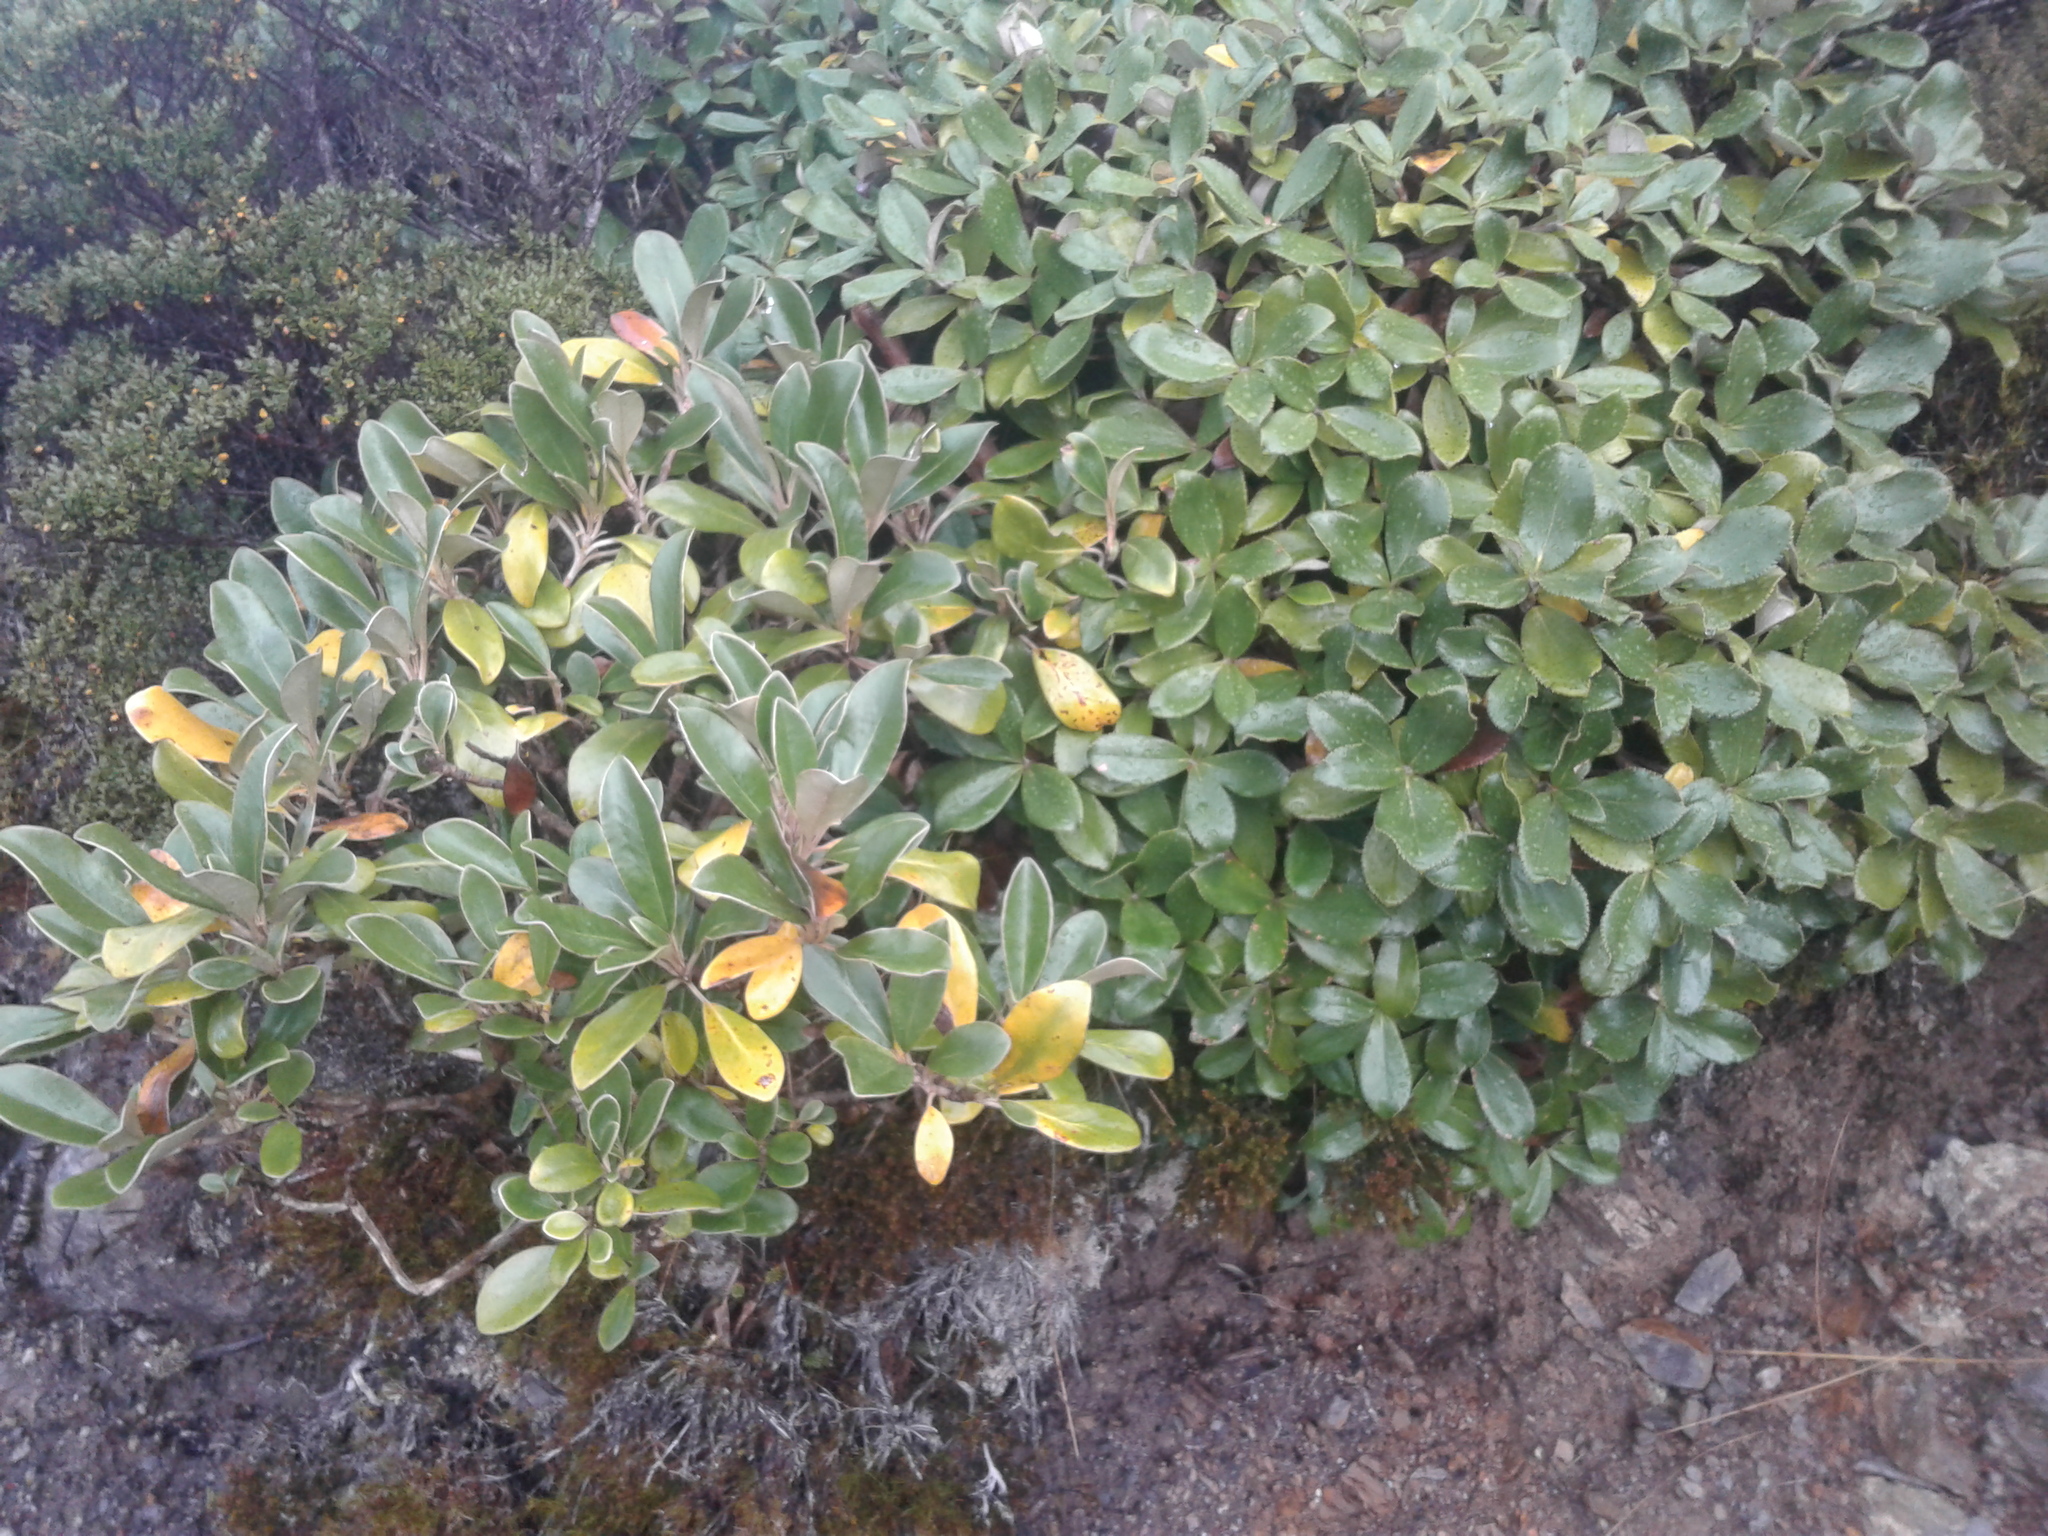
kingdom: Plantae
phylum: Tracheophyta
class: Magnoliopsida
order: Asterales
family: Asteraceae
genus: Brachyglottis
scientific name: Brachyglottis buchananii
